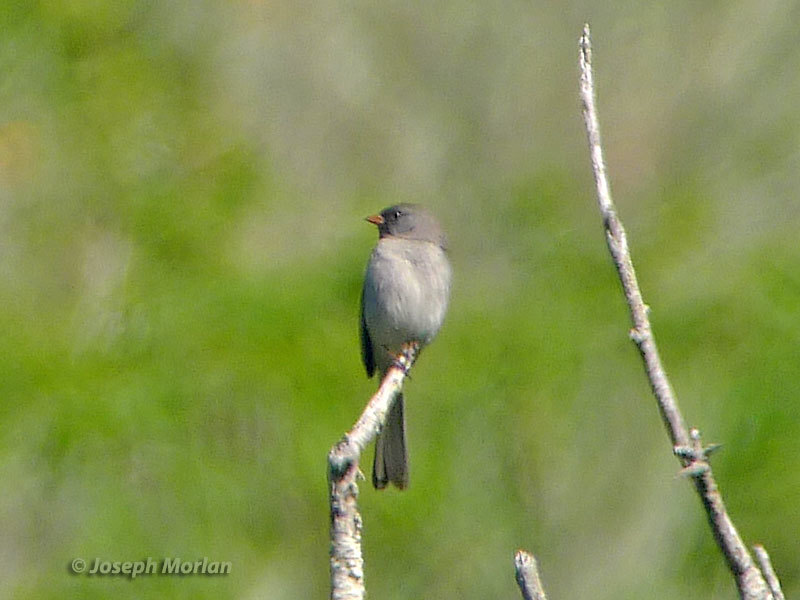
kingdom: Animalia
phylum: Chordata
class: Aves
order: Passeriformes
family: Passerellidae
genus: Spizella
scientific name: Spizella atrogularis
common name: Black-chinned sparrow
